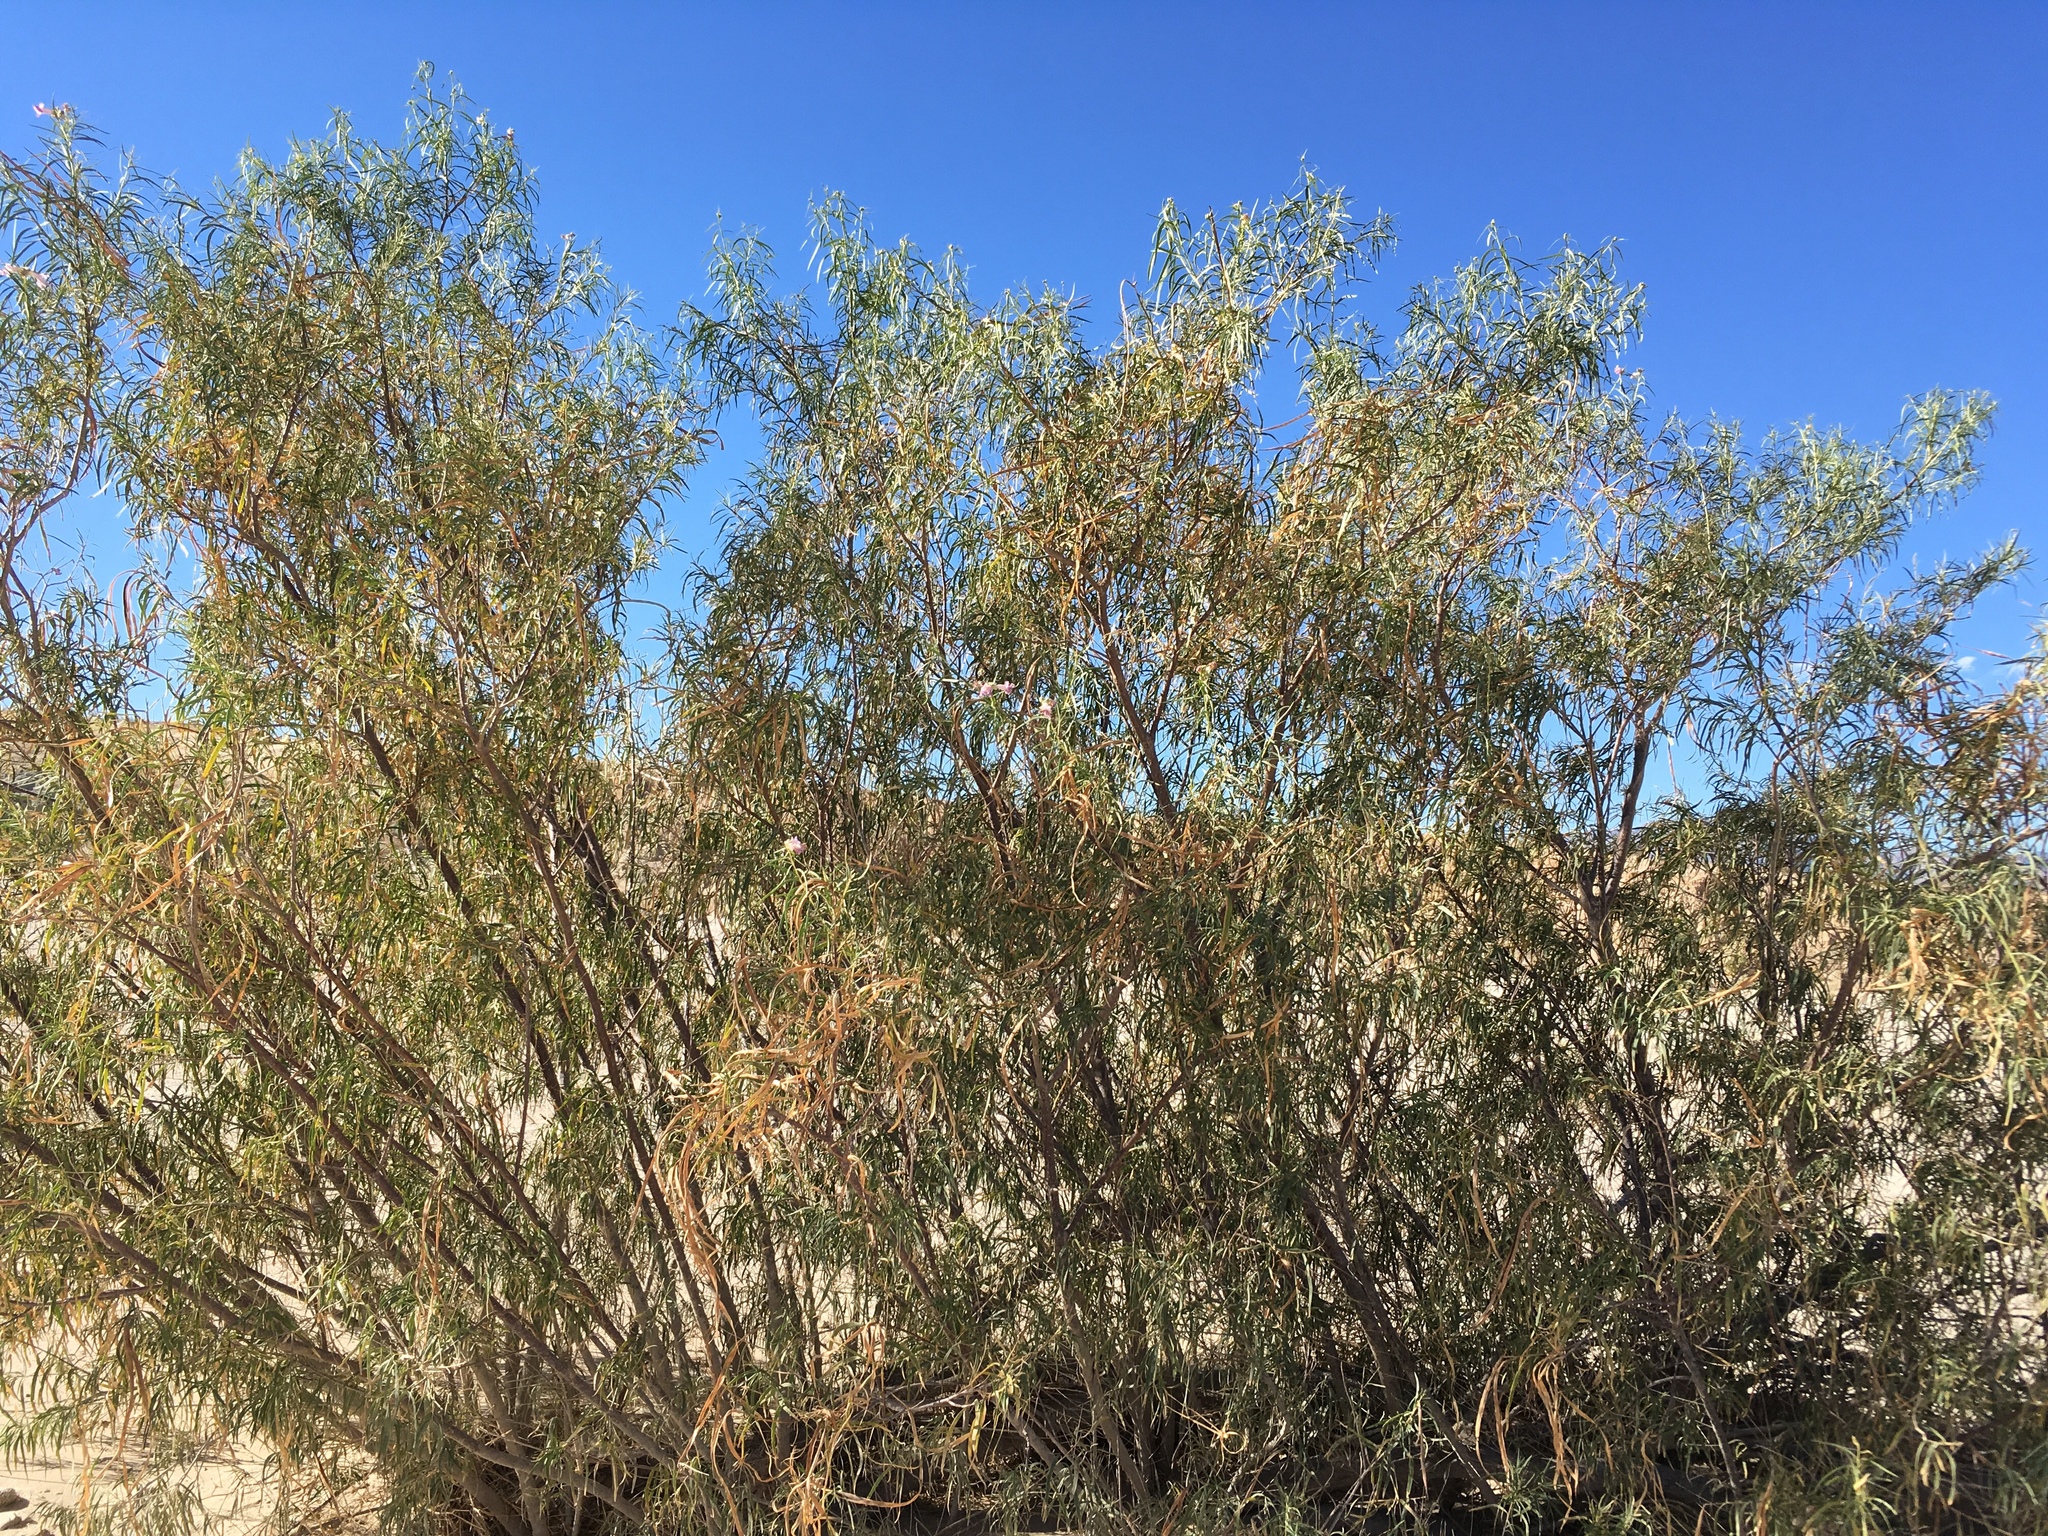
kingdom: Plantae
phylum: Tracheophyta
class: Magnoliopsida
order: Lamiales
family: Bignoniaceae
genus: Chilopsis
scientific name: Chilopsis linearis
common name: Desert-willow
